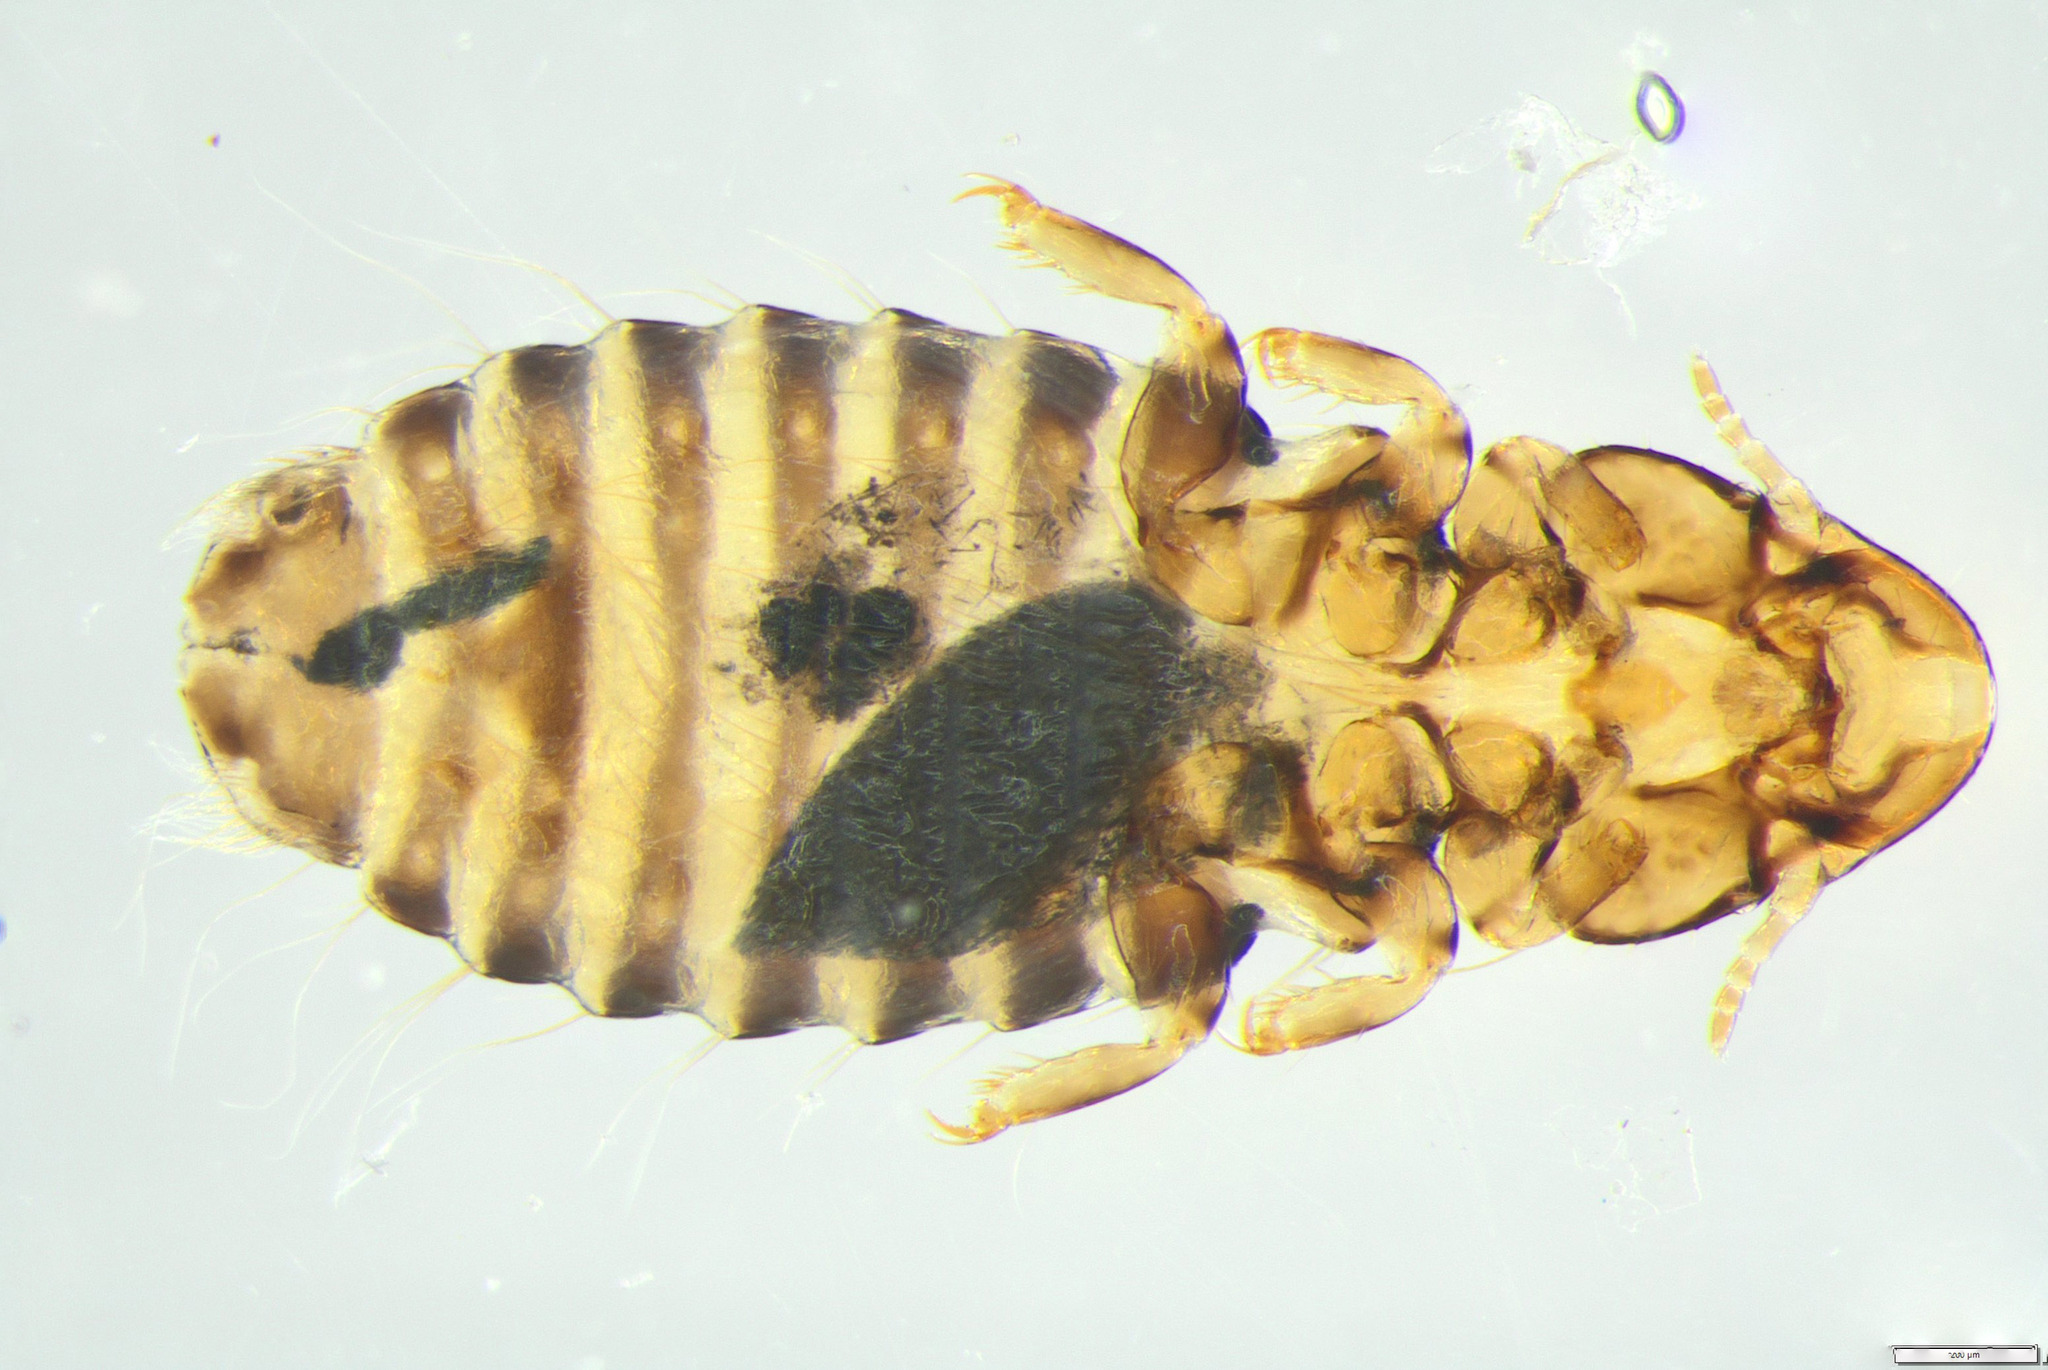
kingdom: Animalia
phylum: Arthropoda
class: Insecta
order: Psocodea
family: Philopteridae
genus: Rallicola
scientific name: Rallicola takahe
